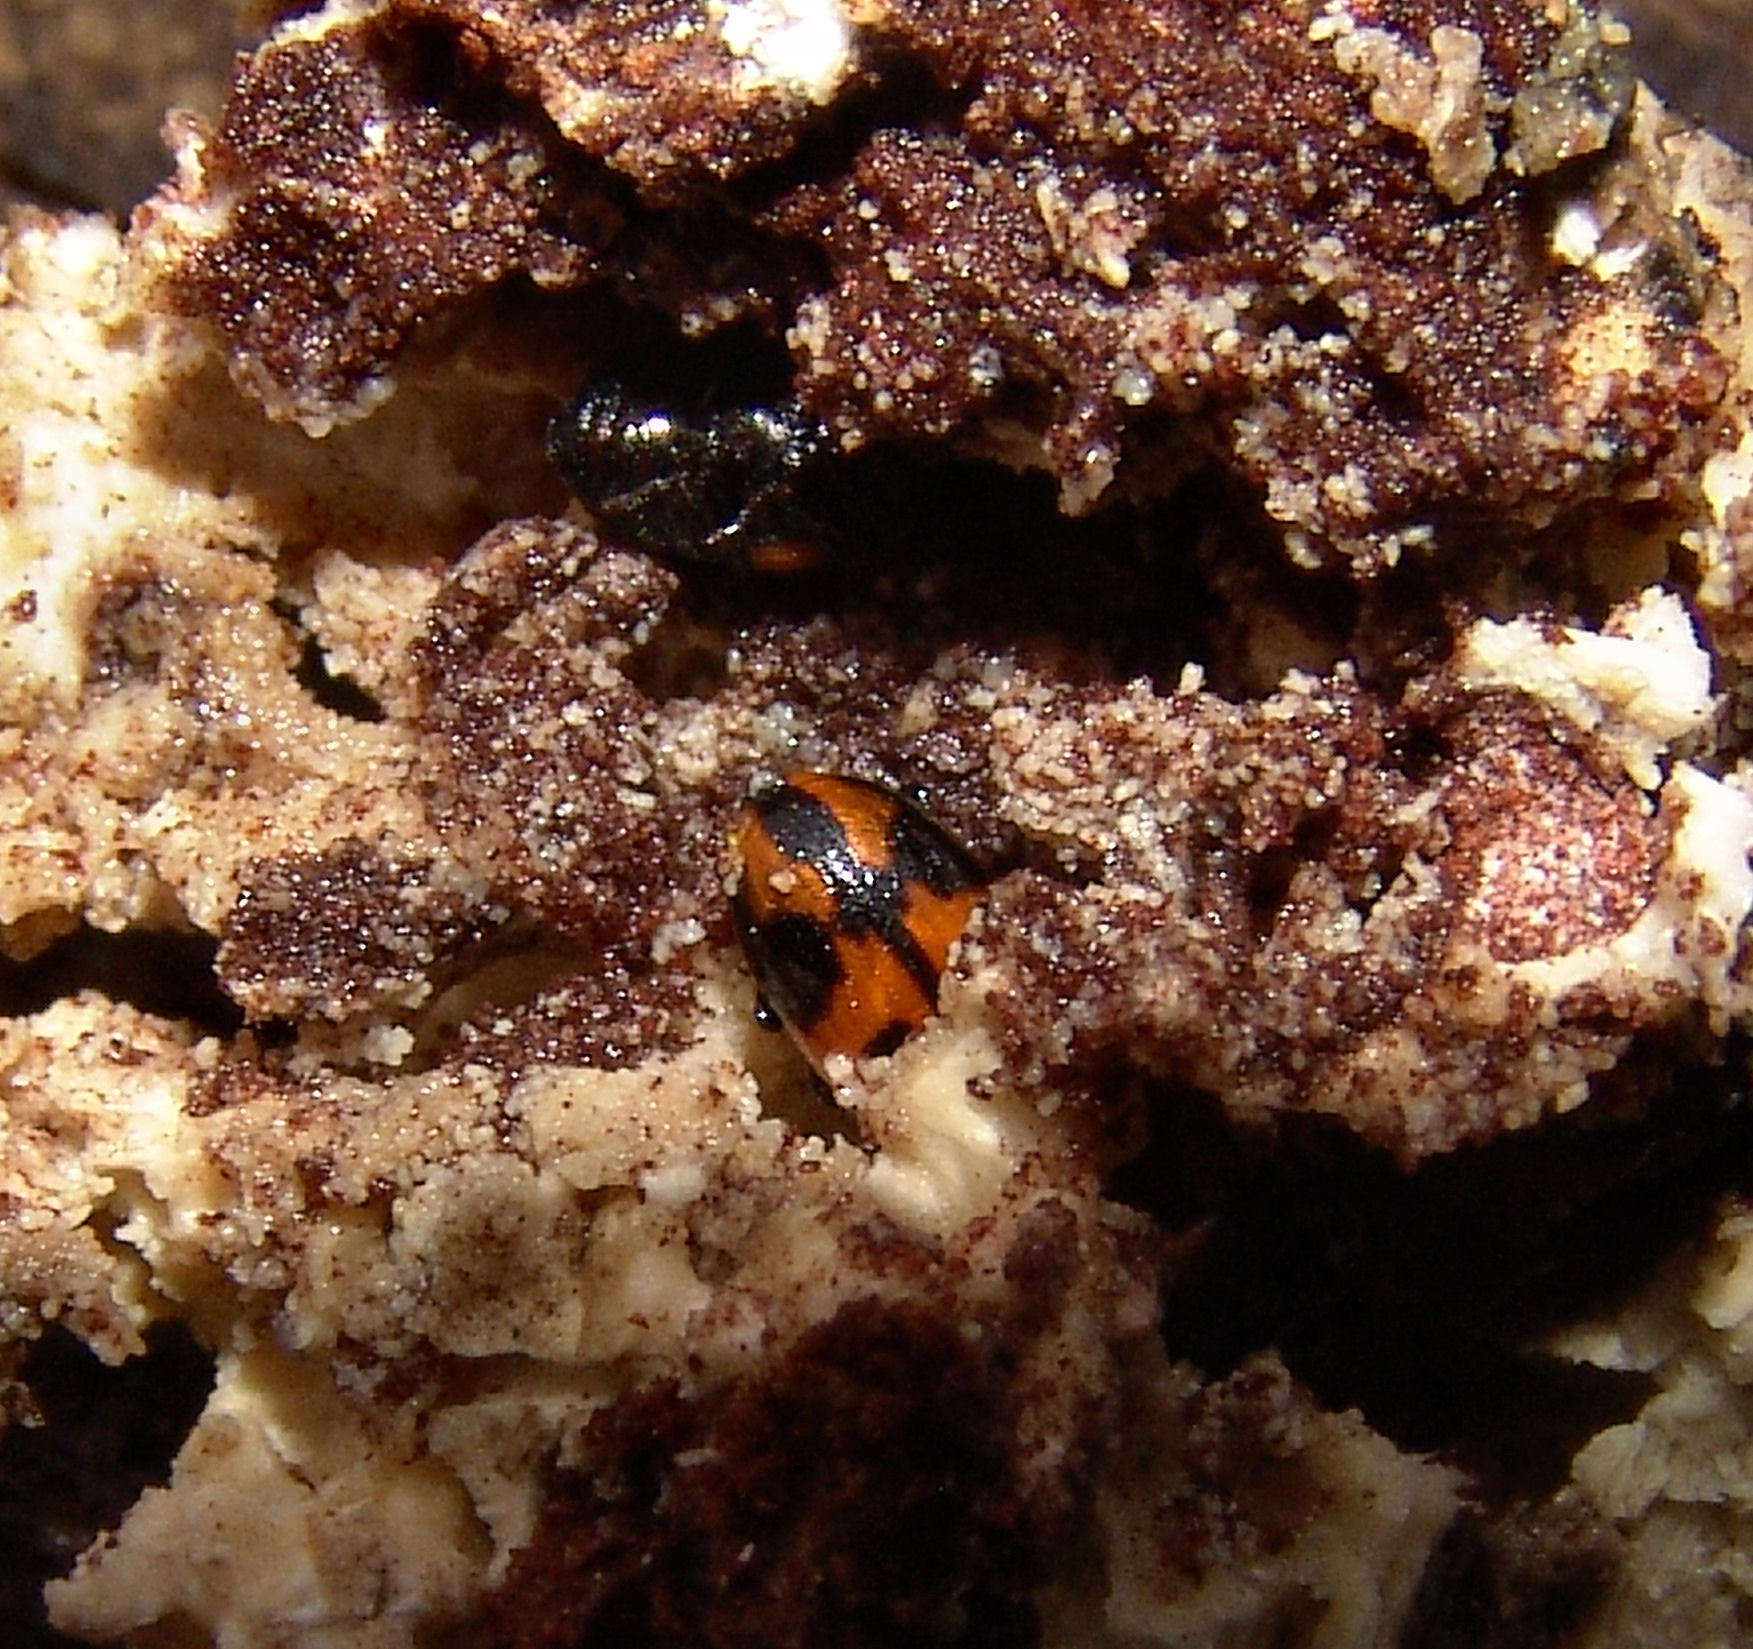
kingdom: Animalia
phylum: Arthropoda
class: Insecta
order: Coleoptera
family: Tenebrionidae
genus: Diaperis
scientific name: Diaperis maculata
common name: Darkling beetle
